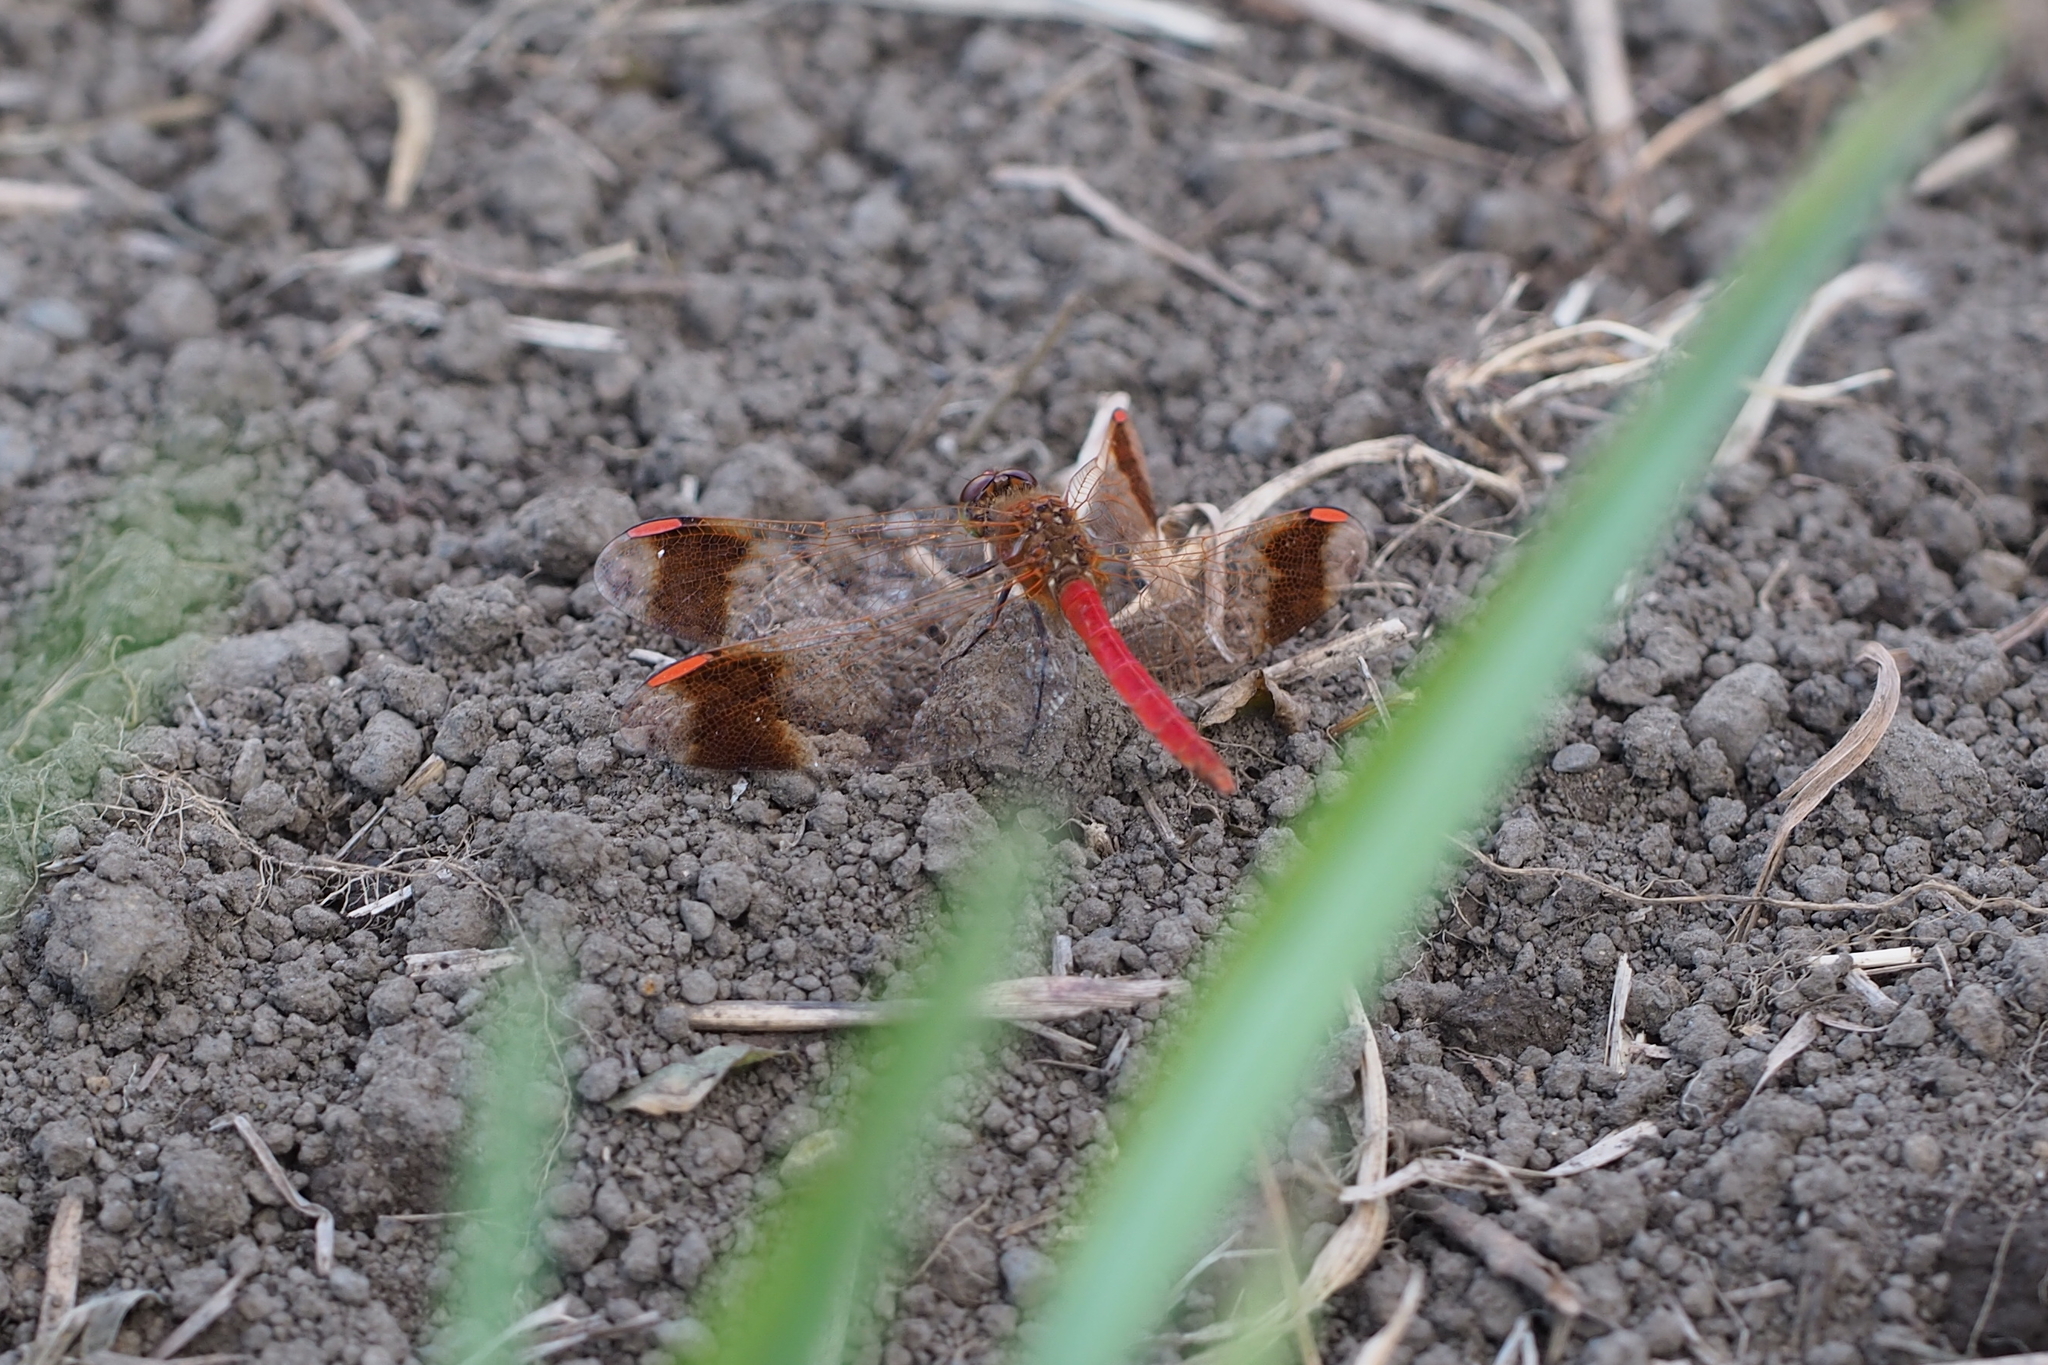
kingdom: Animalia
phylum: Arthropoda
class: Insecta
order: Odonata
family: Libellulidae
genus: Sympetrum
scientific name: Sympetrum pedemontanum
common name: Banded darter
